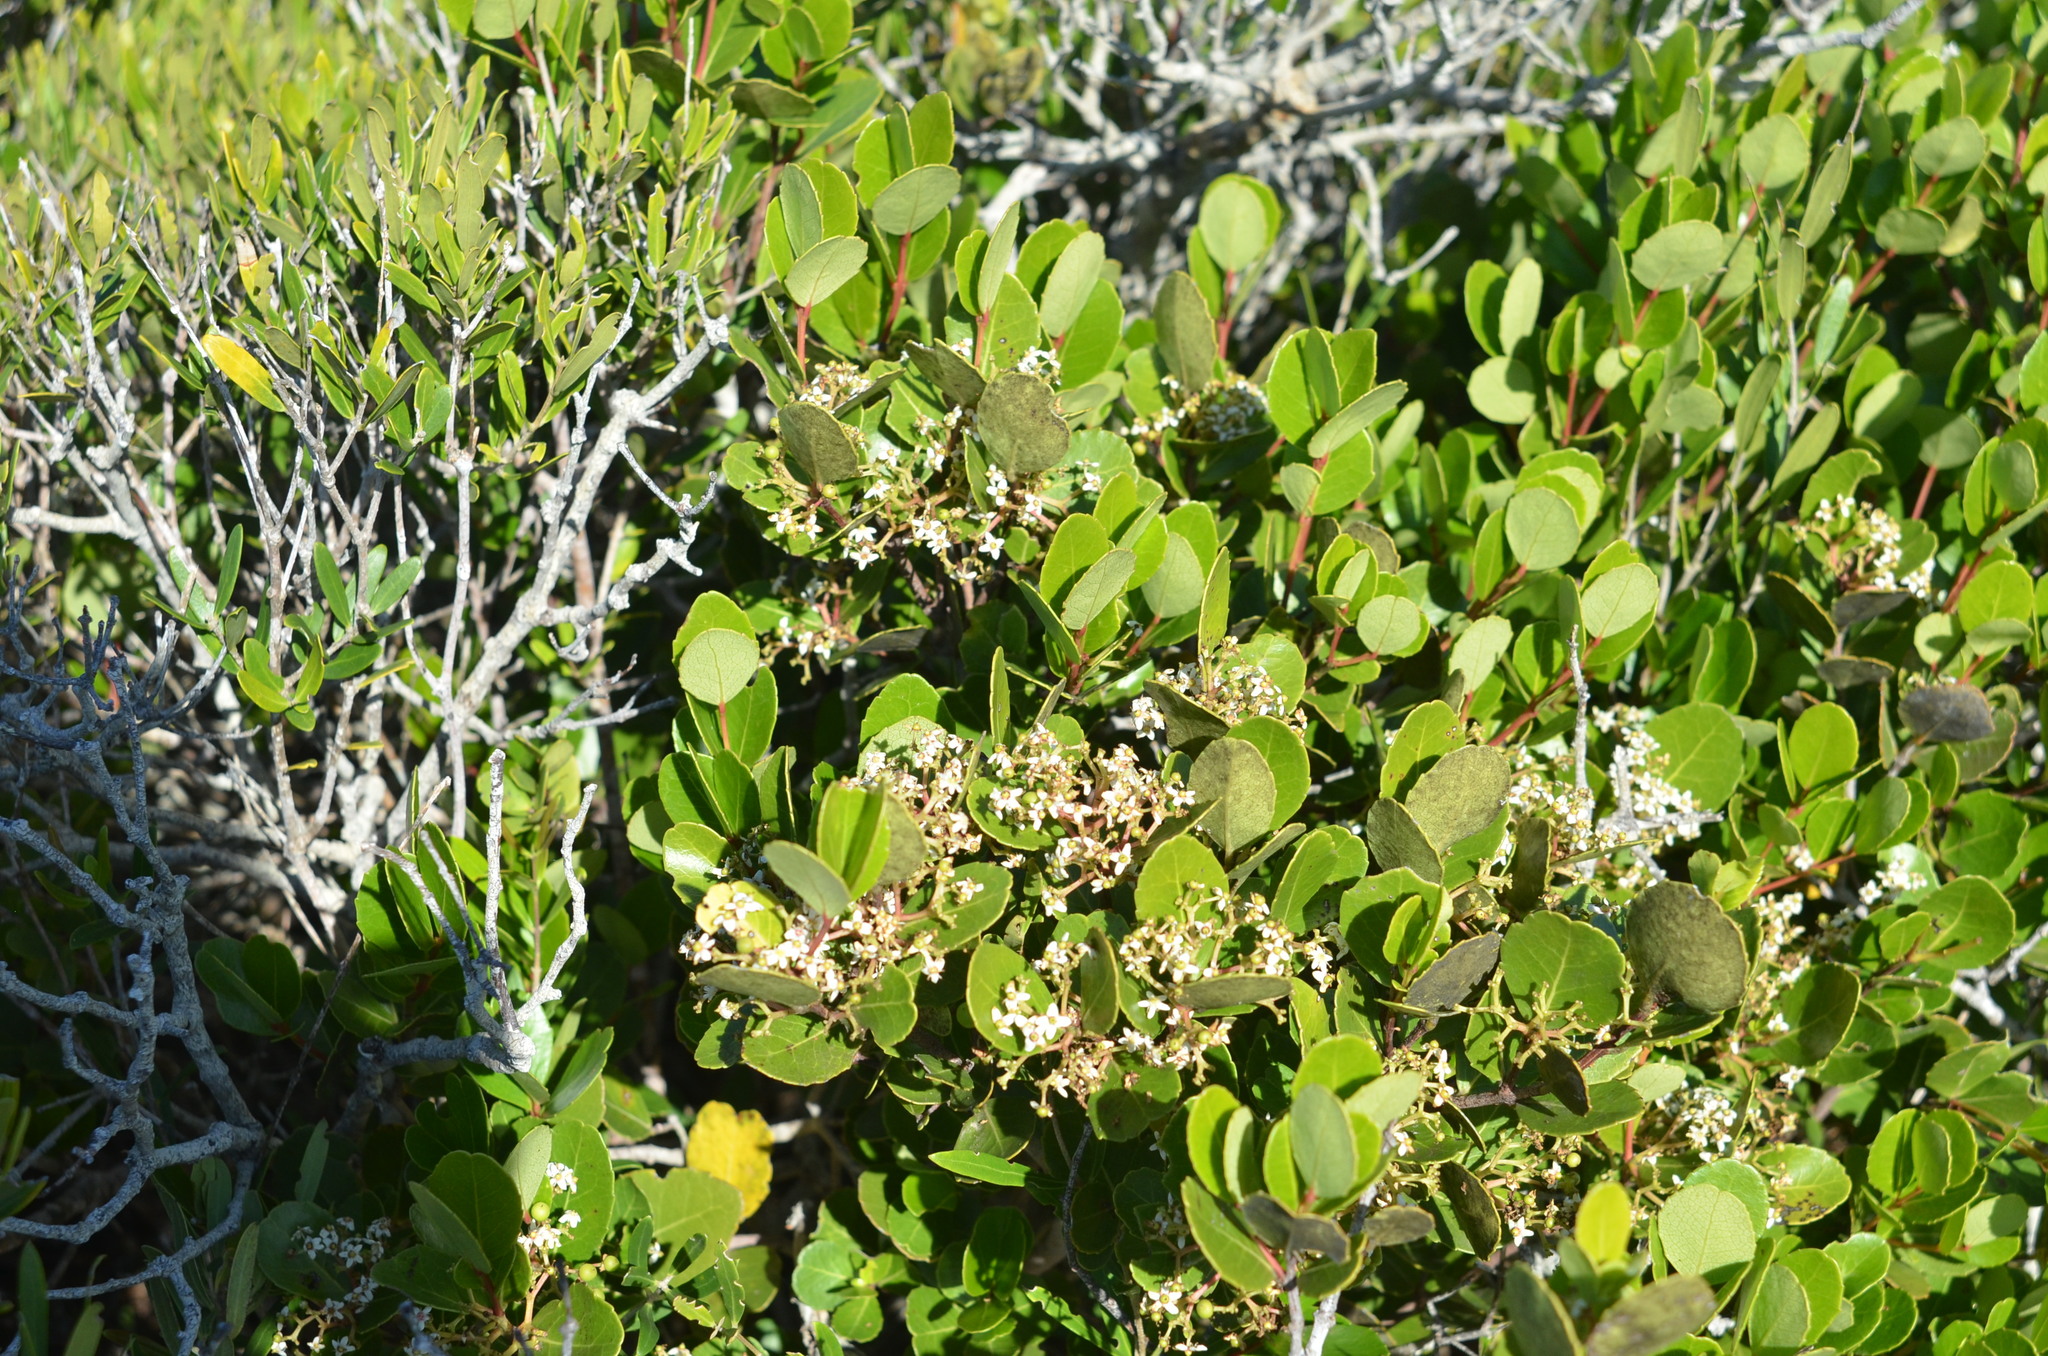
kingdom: Plantae
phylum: Tracheophyta
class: Magnoliopsida
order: Celastrales
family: Celastraceae
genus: Cassine
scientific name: Cassine peragua
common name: Cape saffron
